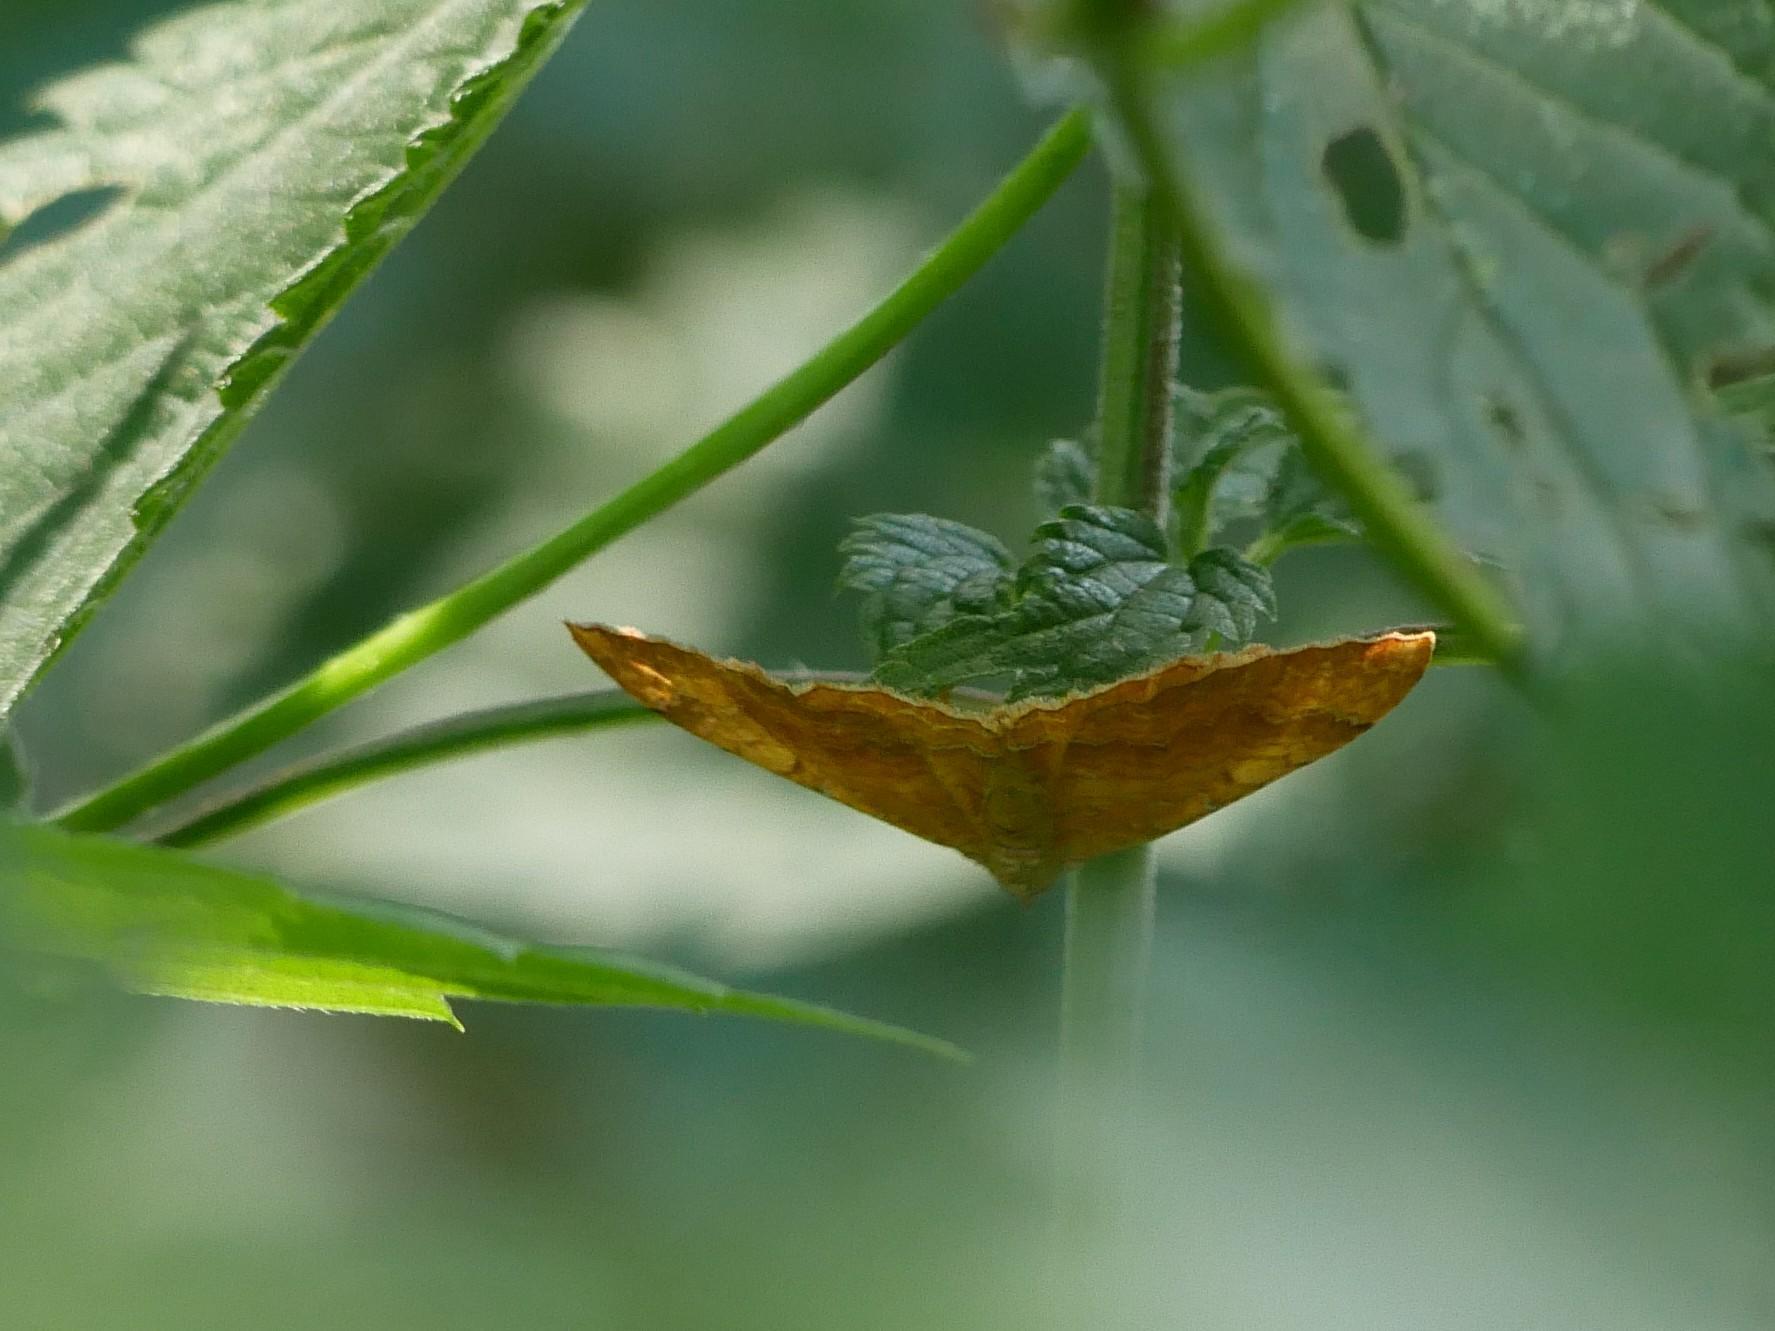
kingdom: Animalia
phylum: Arthropoda
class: Insecta
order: Lepidoptera
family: Geometridae
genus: Camptogramma
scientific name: Camptogramma bilineata
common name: Yellow shell
